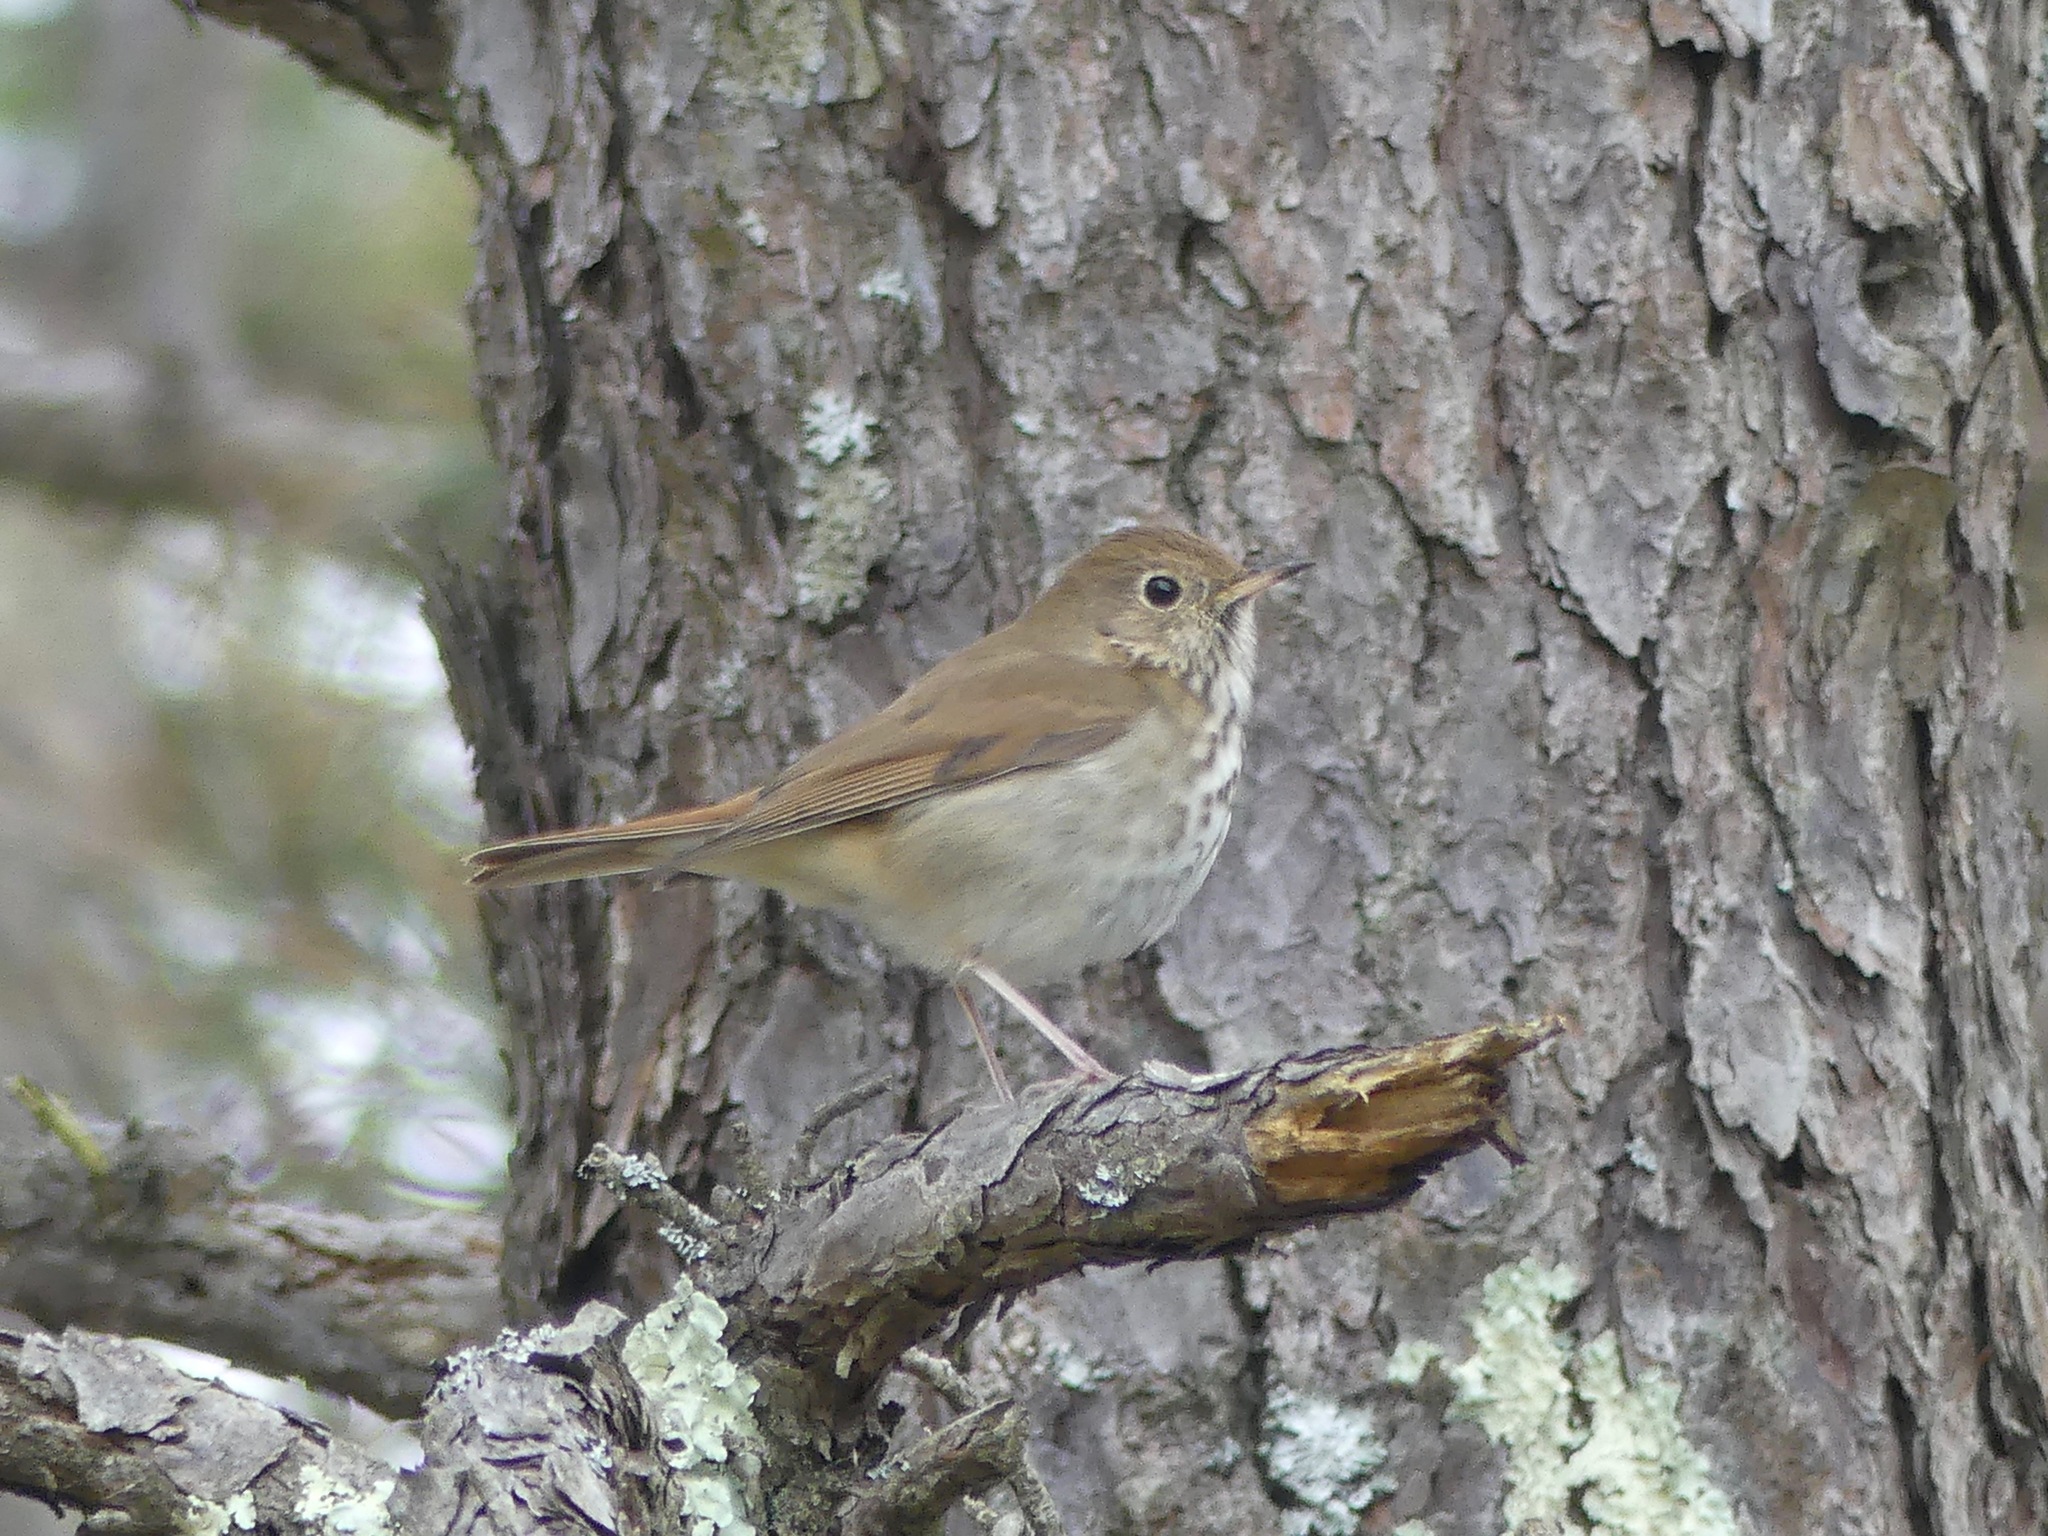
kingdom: Animalia
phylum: Chordata
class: Aves
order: Passeriformes
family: Turdidae
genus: Catharus
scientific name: Catharus guttatus
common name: Hermit thrush
